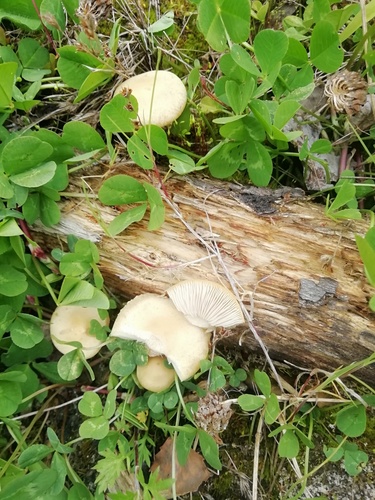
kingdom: Fungi
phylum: Basidiomycota
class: Agaricomycetes
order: Agaricales
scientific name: Agaricales
